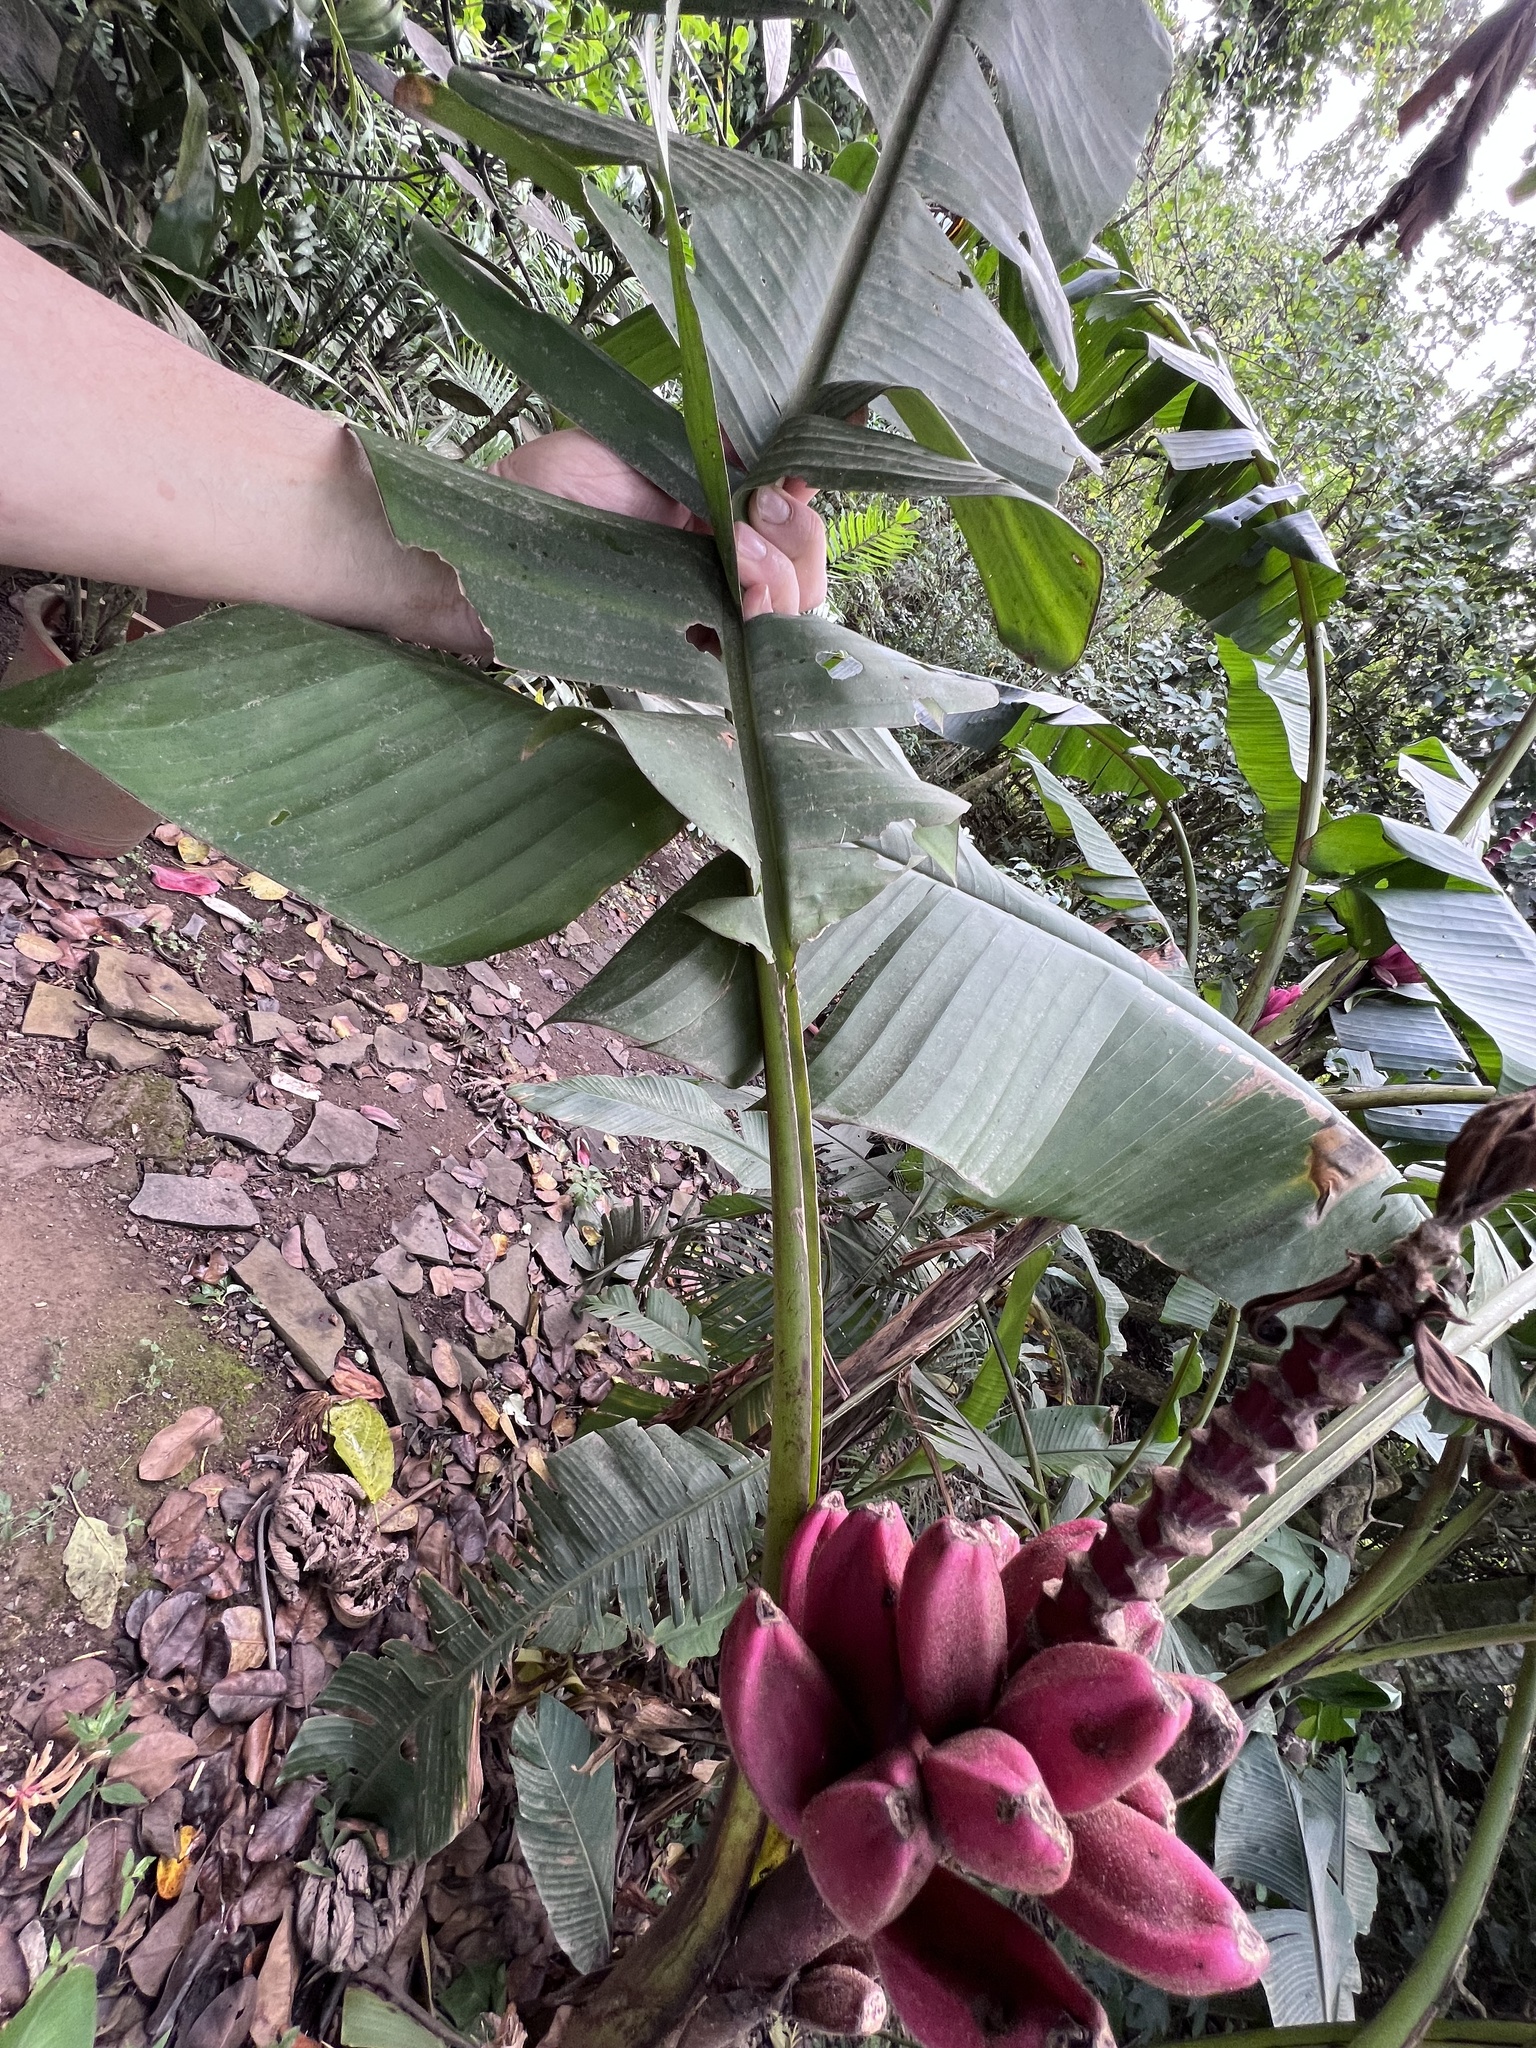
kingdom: Plantae
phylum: Tracheophyta
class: Liliopsida
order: Zingiberales
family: Musaceae
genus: Musa
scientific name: Musa velutina
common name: Pink velvet banana
